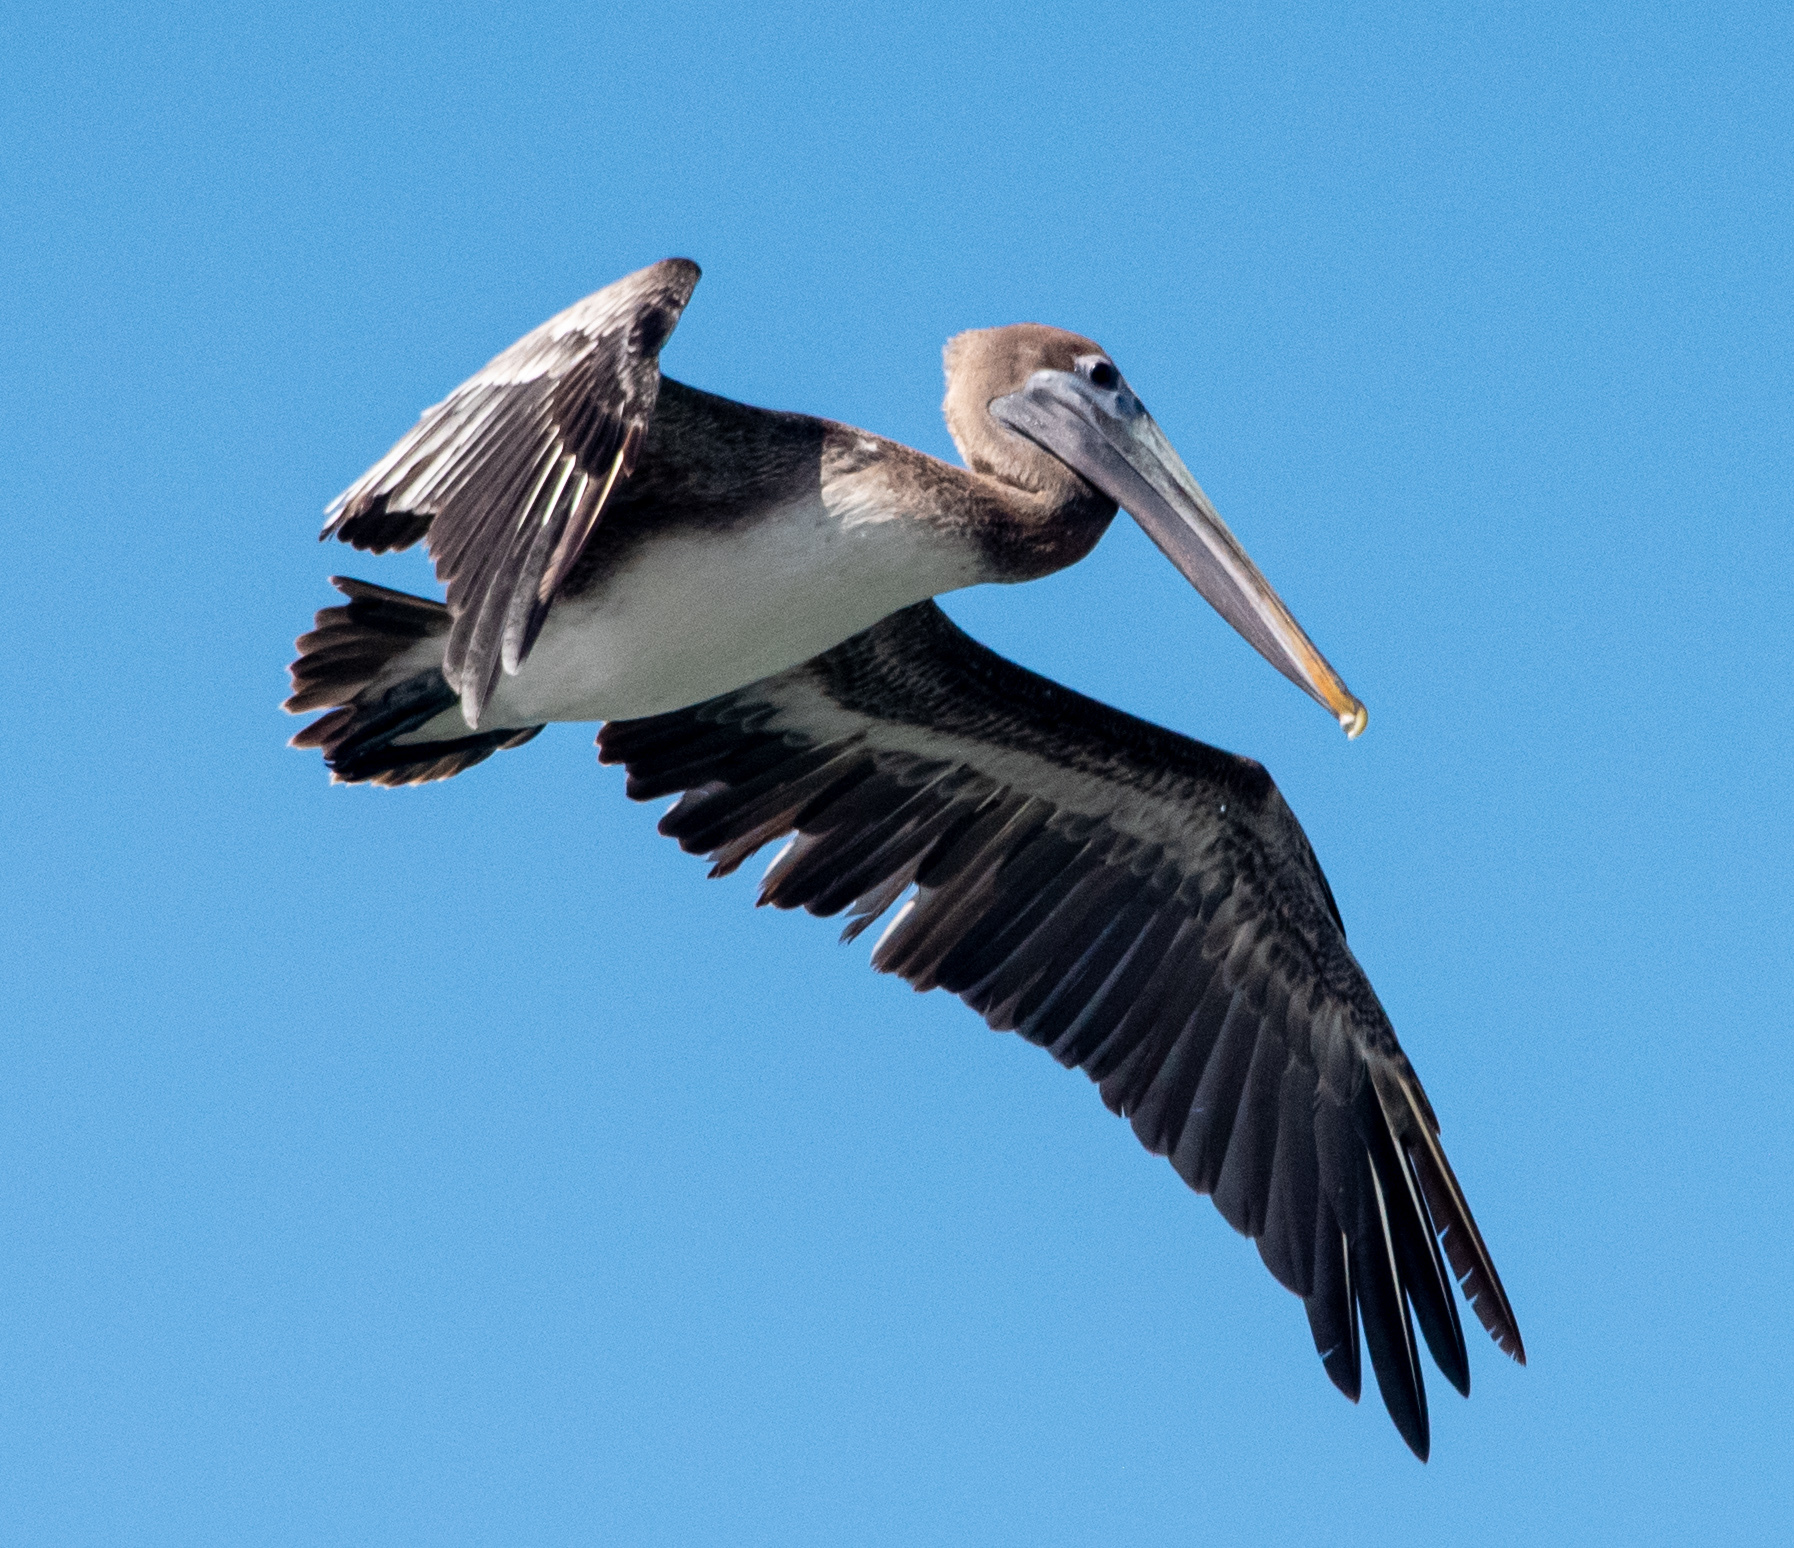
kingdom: Animalia
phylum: Chordata
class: Aves
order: Pelecaniformes
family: Pelecanidae
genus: Pelecanus
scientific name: Pelecanus occidentalis
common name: Brown pelican
